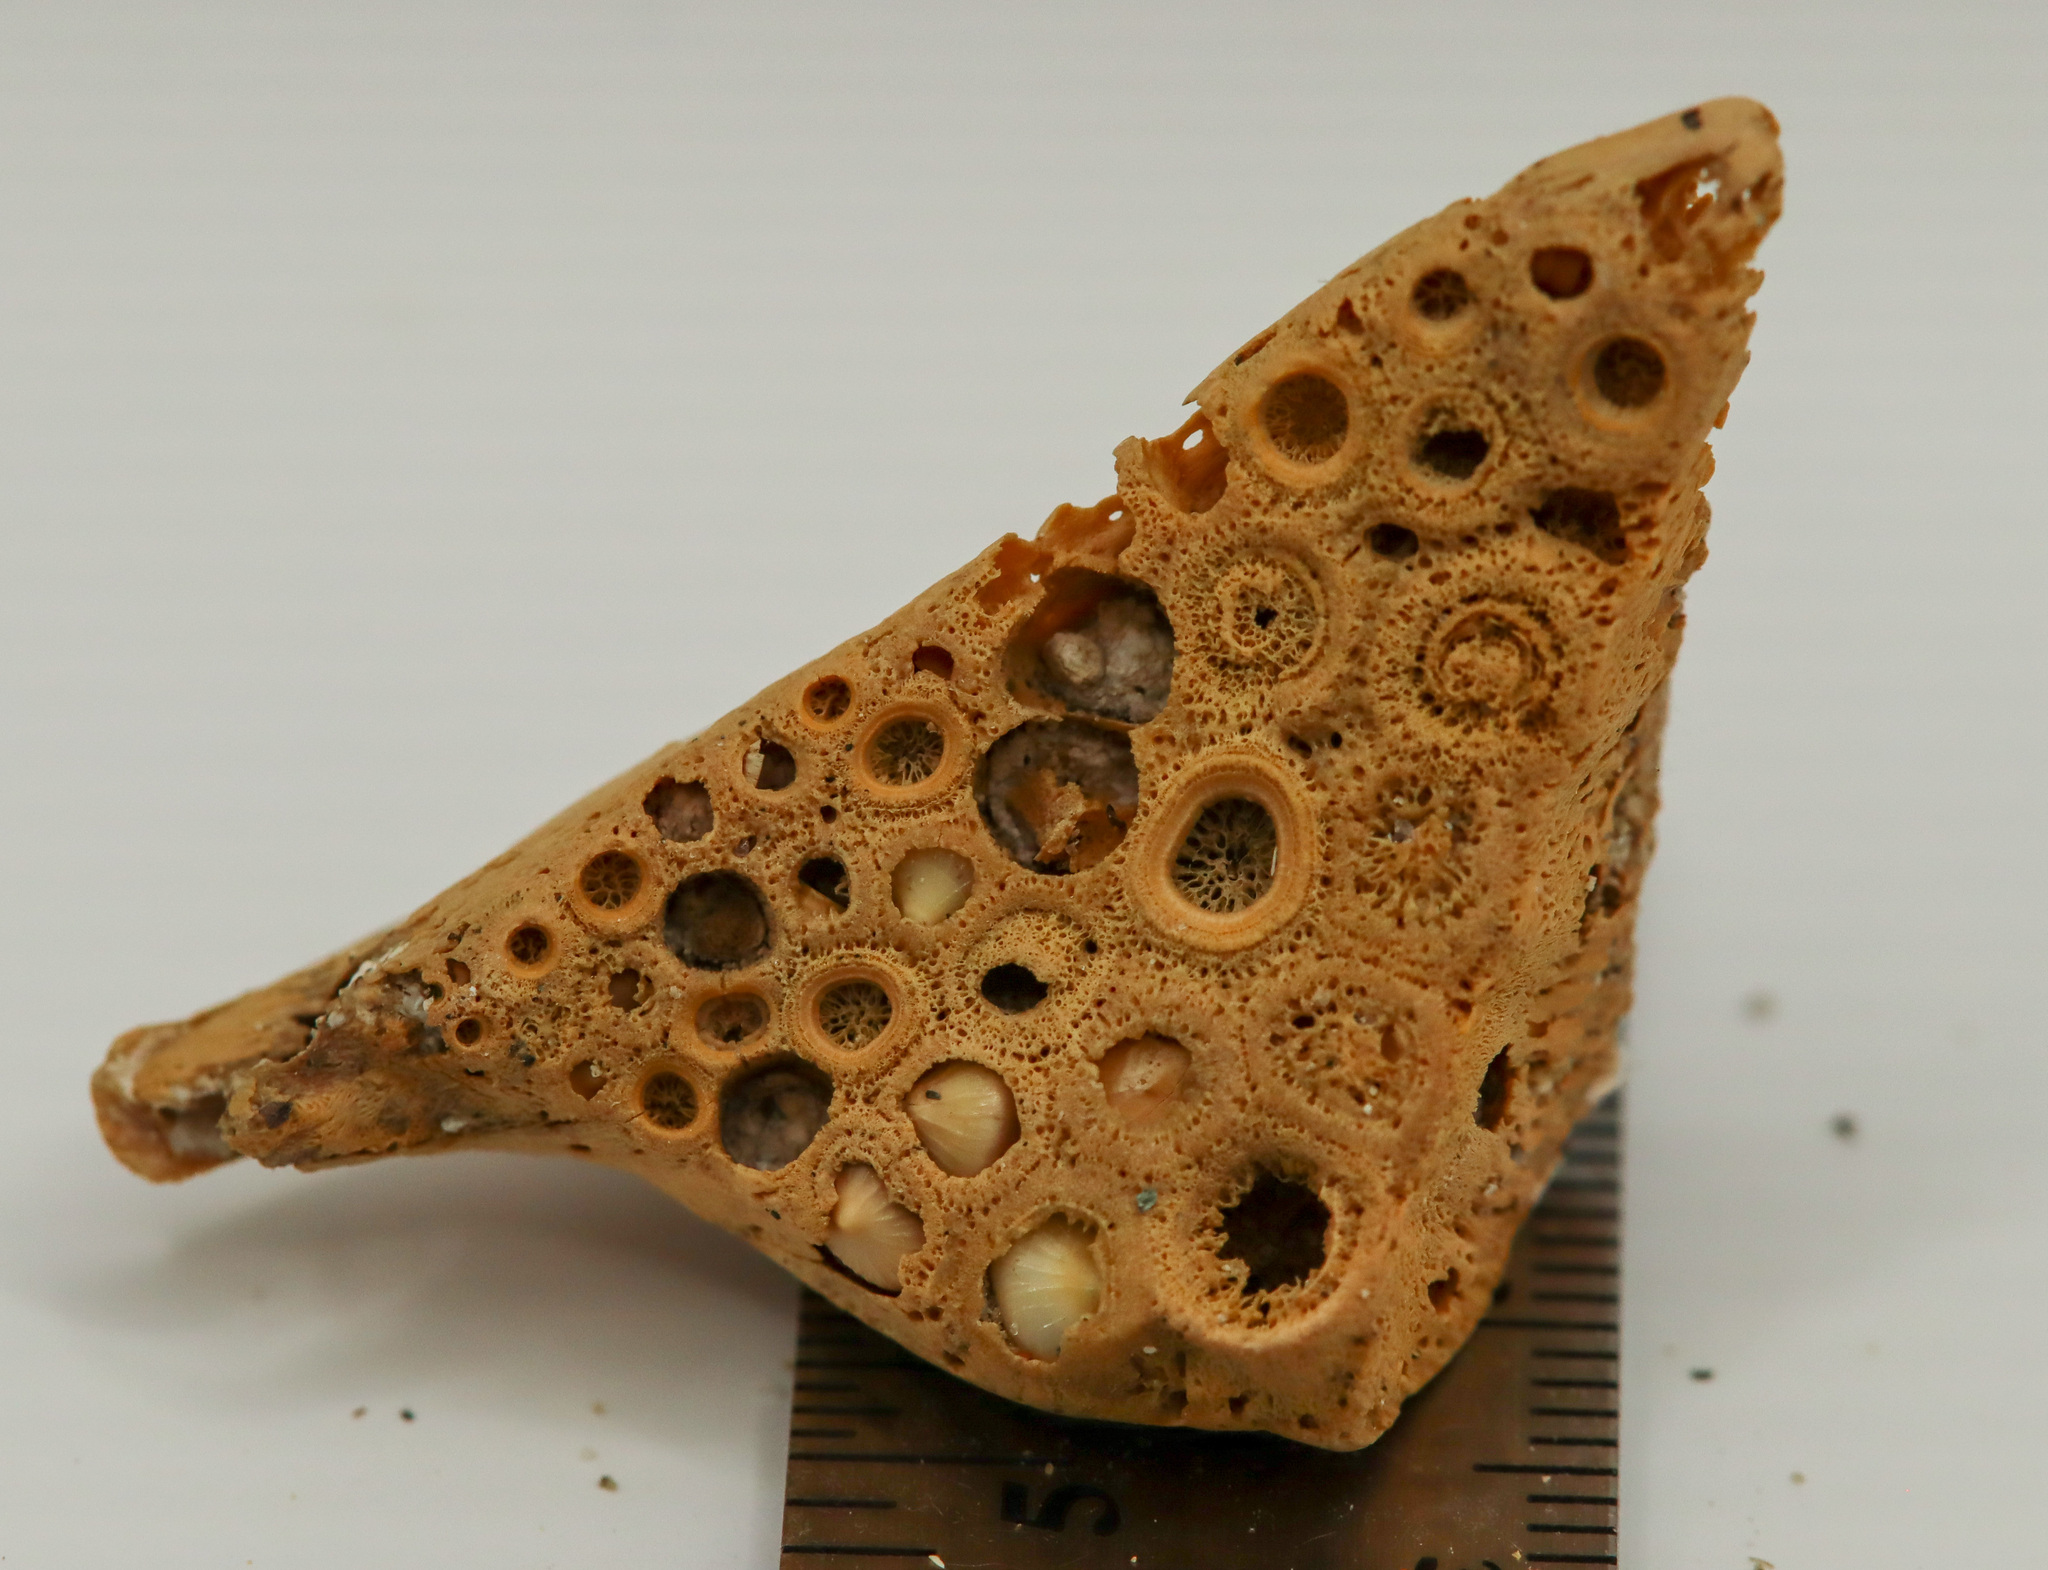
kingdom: Animalia
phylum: Chordata
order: Perciformes
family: Sciaenidae
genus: Aplodinotus
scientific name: Aplodinotus grunniens
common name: Freshwater drum
